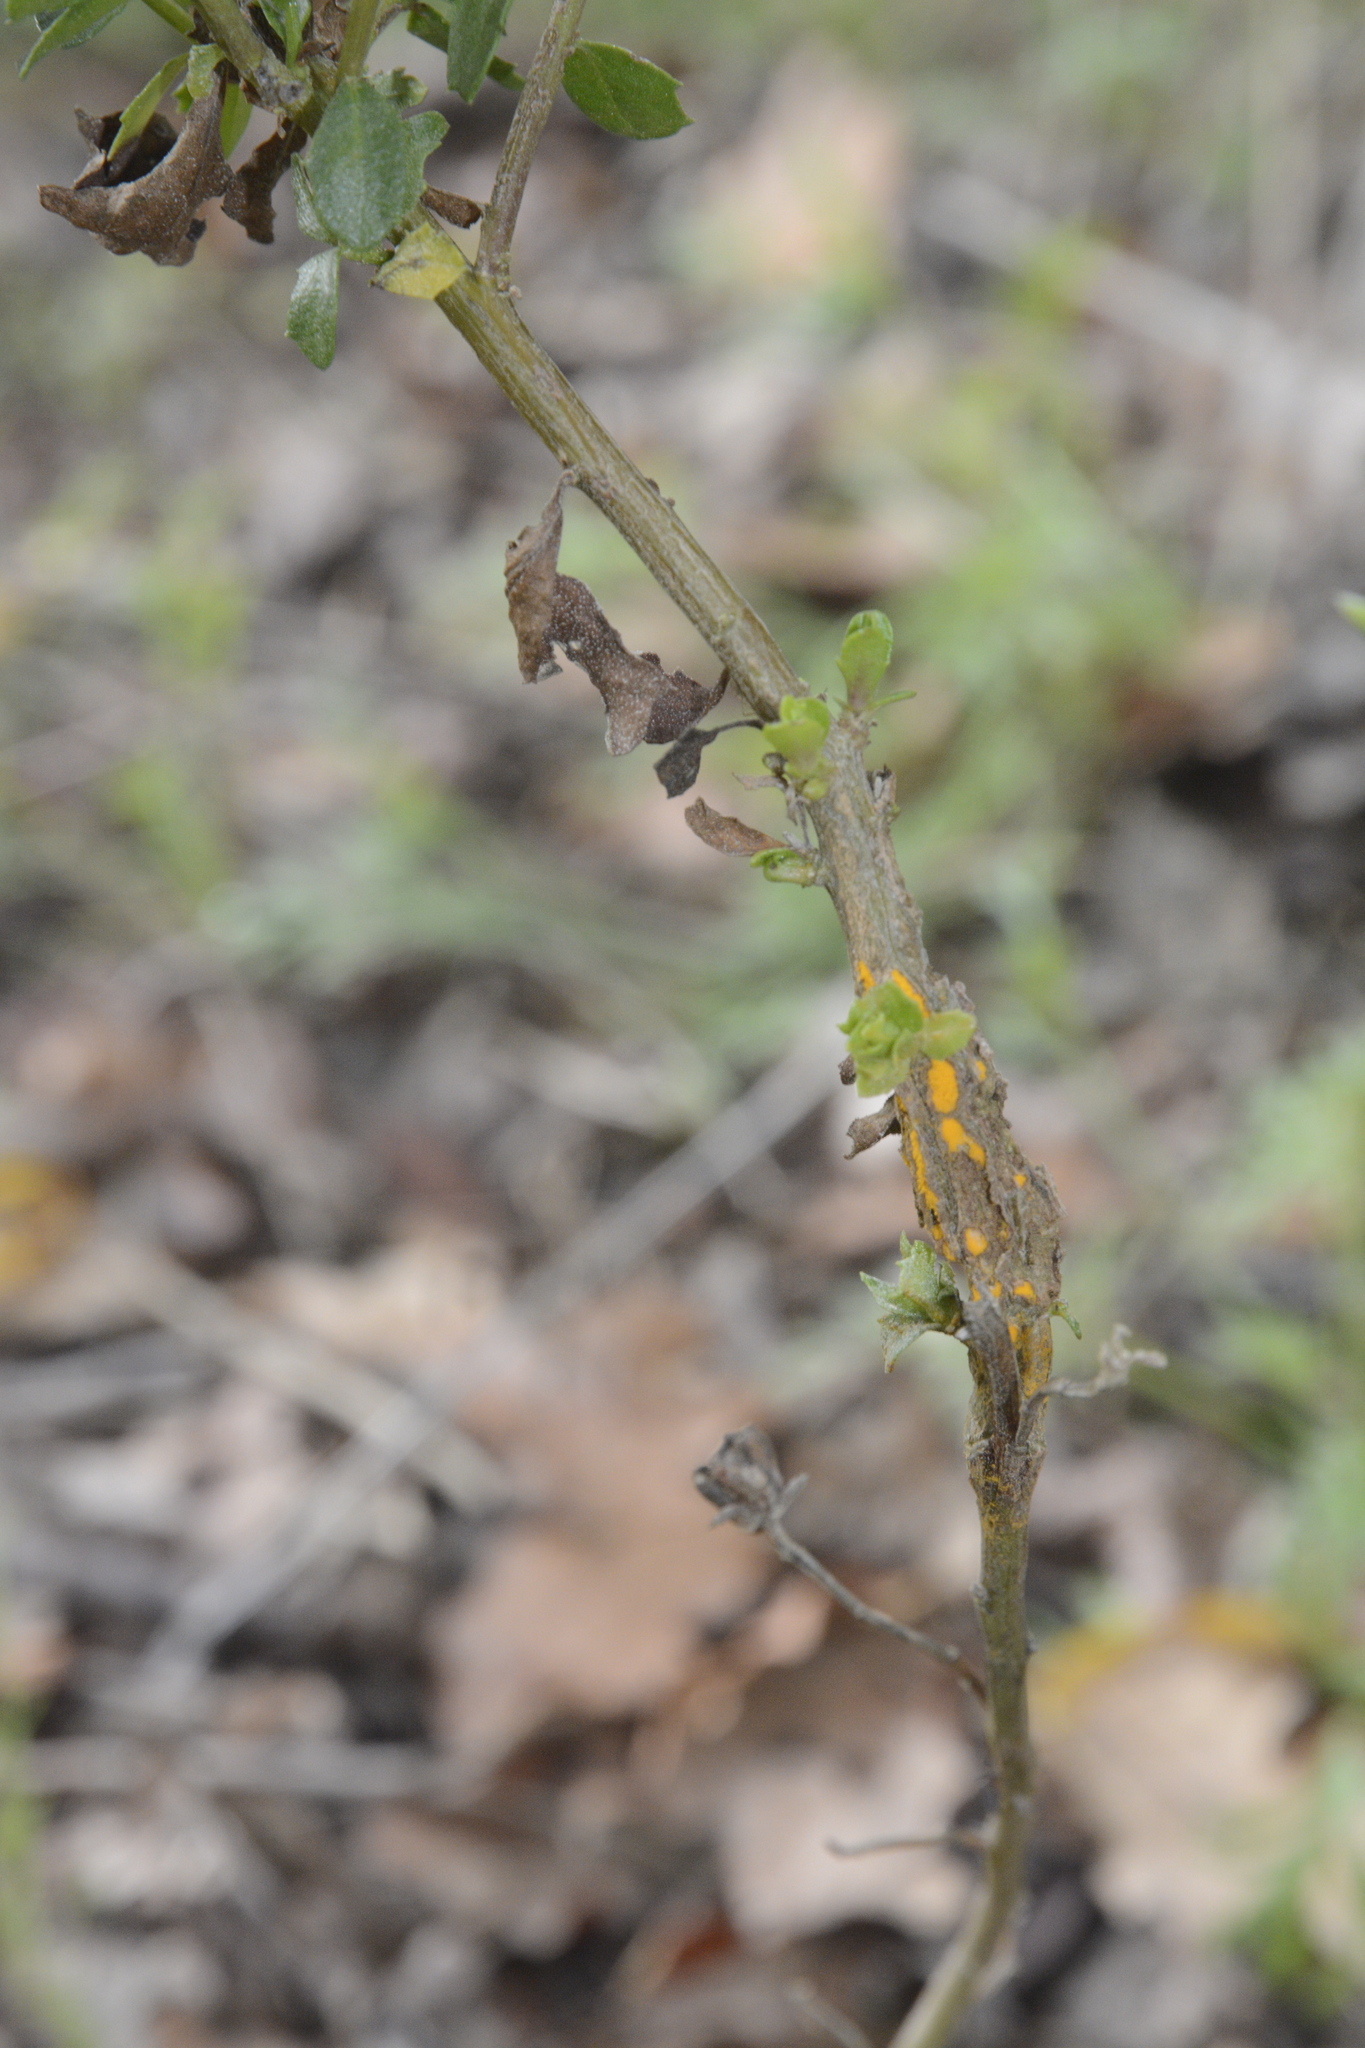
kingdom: Fungi
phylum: Basidiomycota
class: Pucciniomycetes
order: Pucciniales
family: Pucciniaceae
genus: Eriosporangium
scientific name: Eriosporangium evadens
